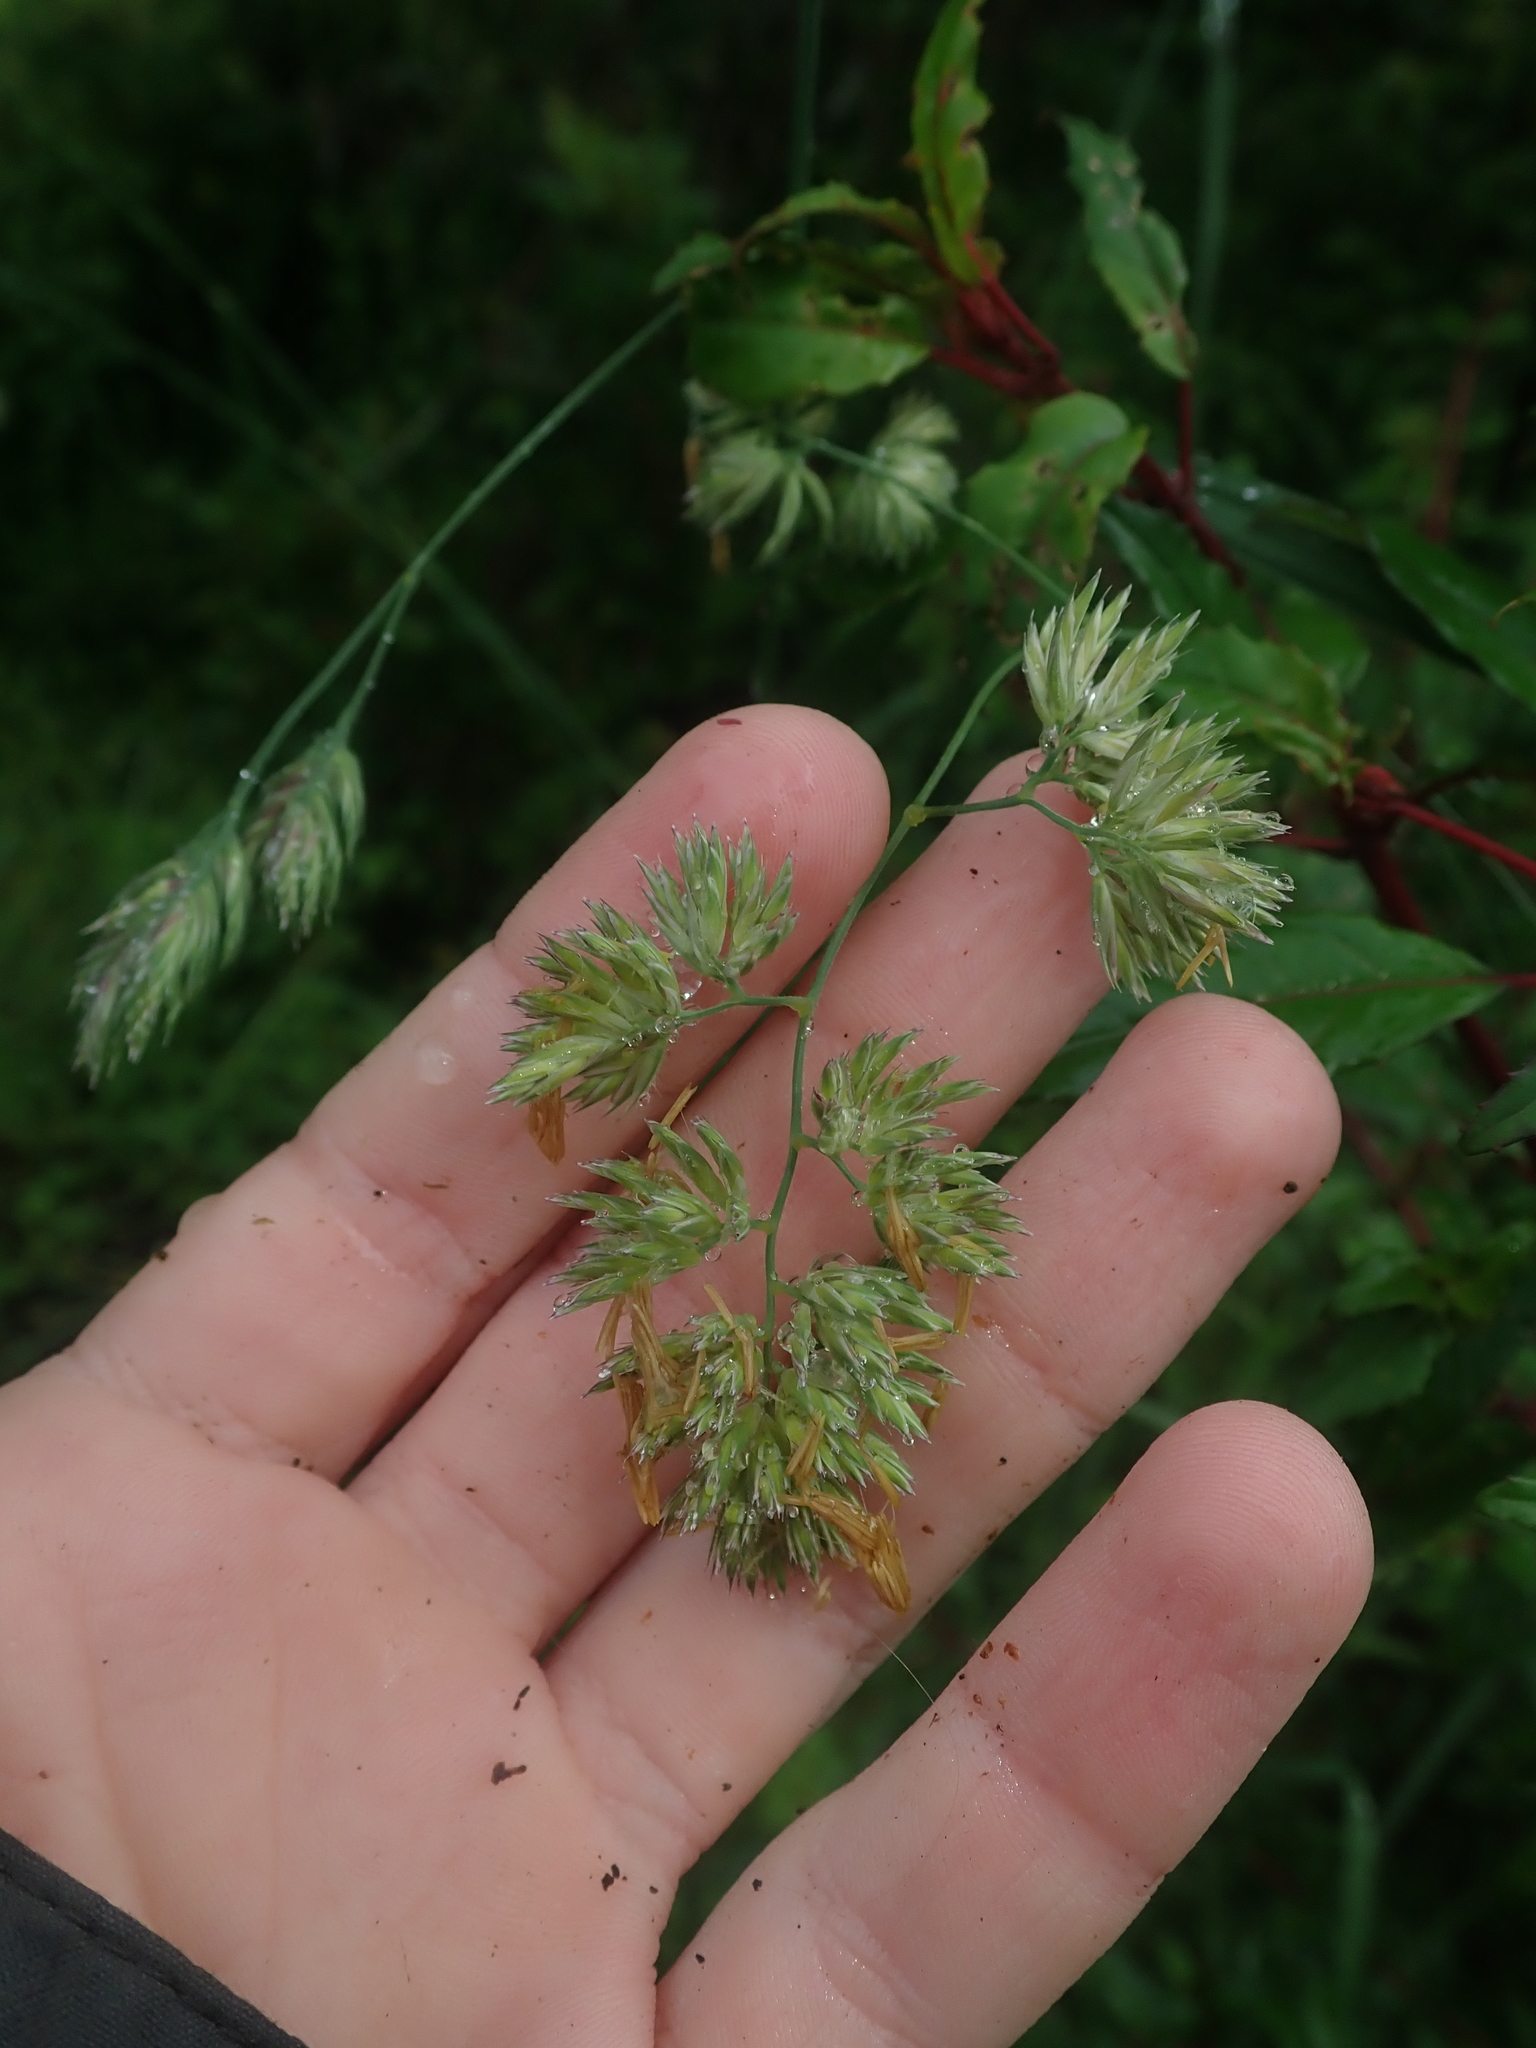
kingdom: Plantae
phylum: Tracheophyta
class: Liliopsida
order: Poales
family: Poaceae
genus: Dactylis
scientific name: Dactylis glomerata
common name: Orchardgrass
